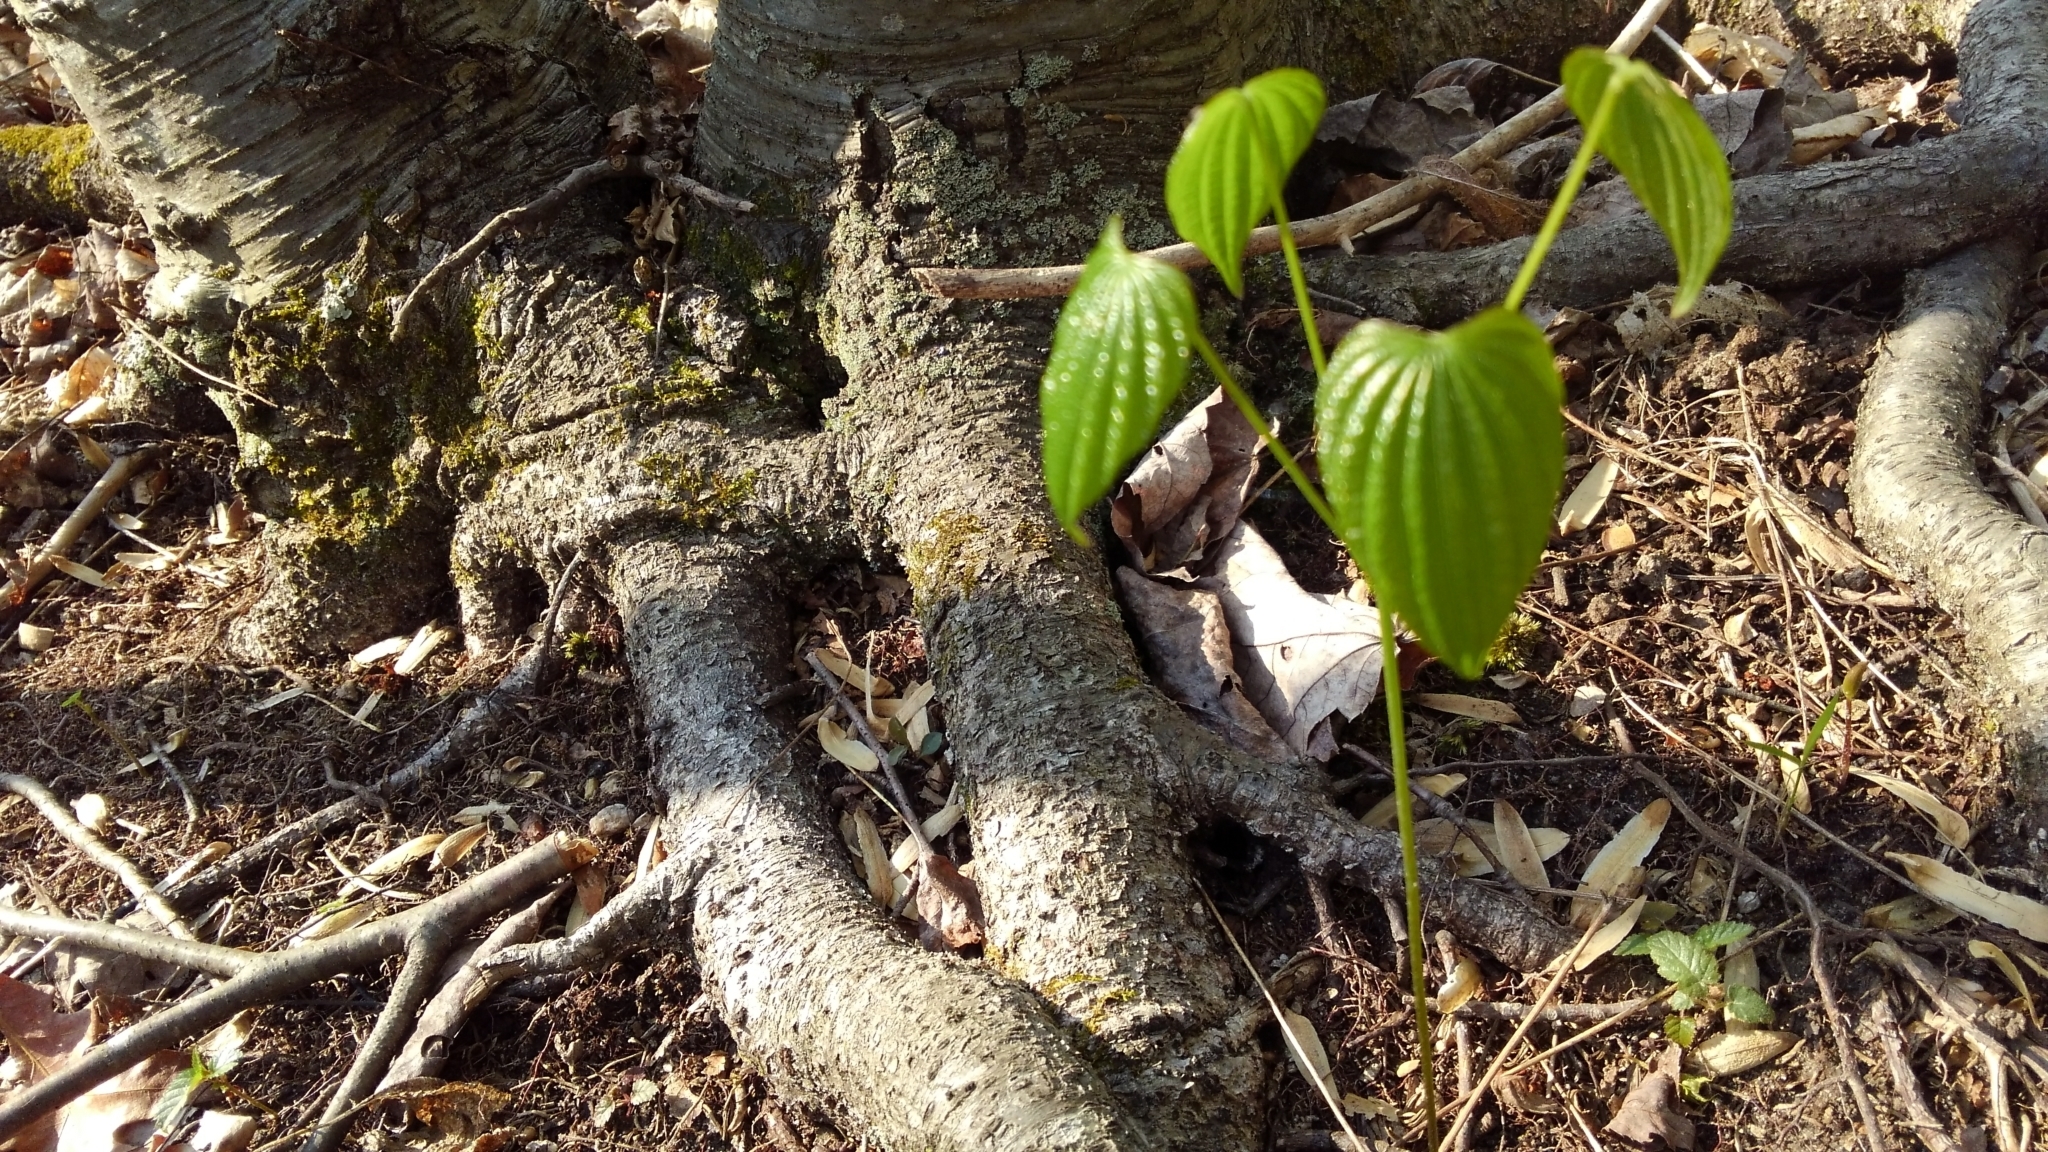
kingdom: Plantae
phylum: Tracheophyta
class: Liliopsida
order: Dioscoreales
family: Dioscoreaceae
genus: Dioscorea
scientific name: Dioscorea villosa
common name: Wild yam
